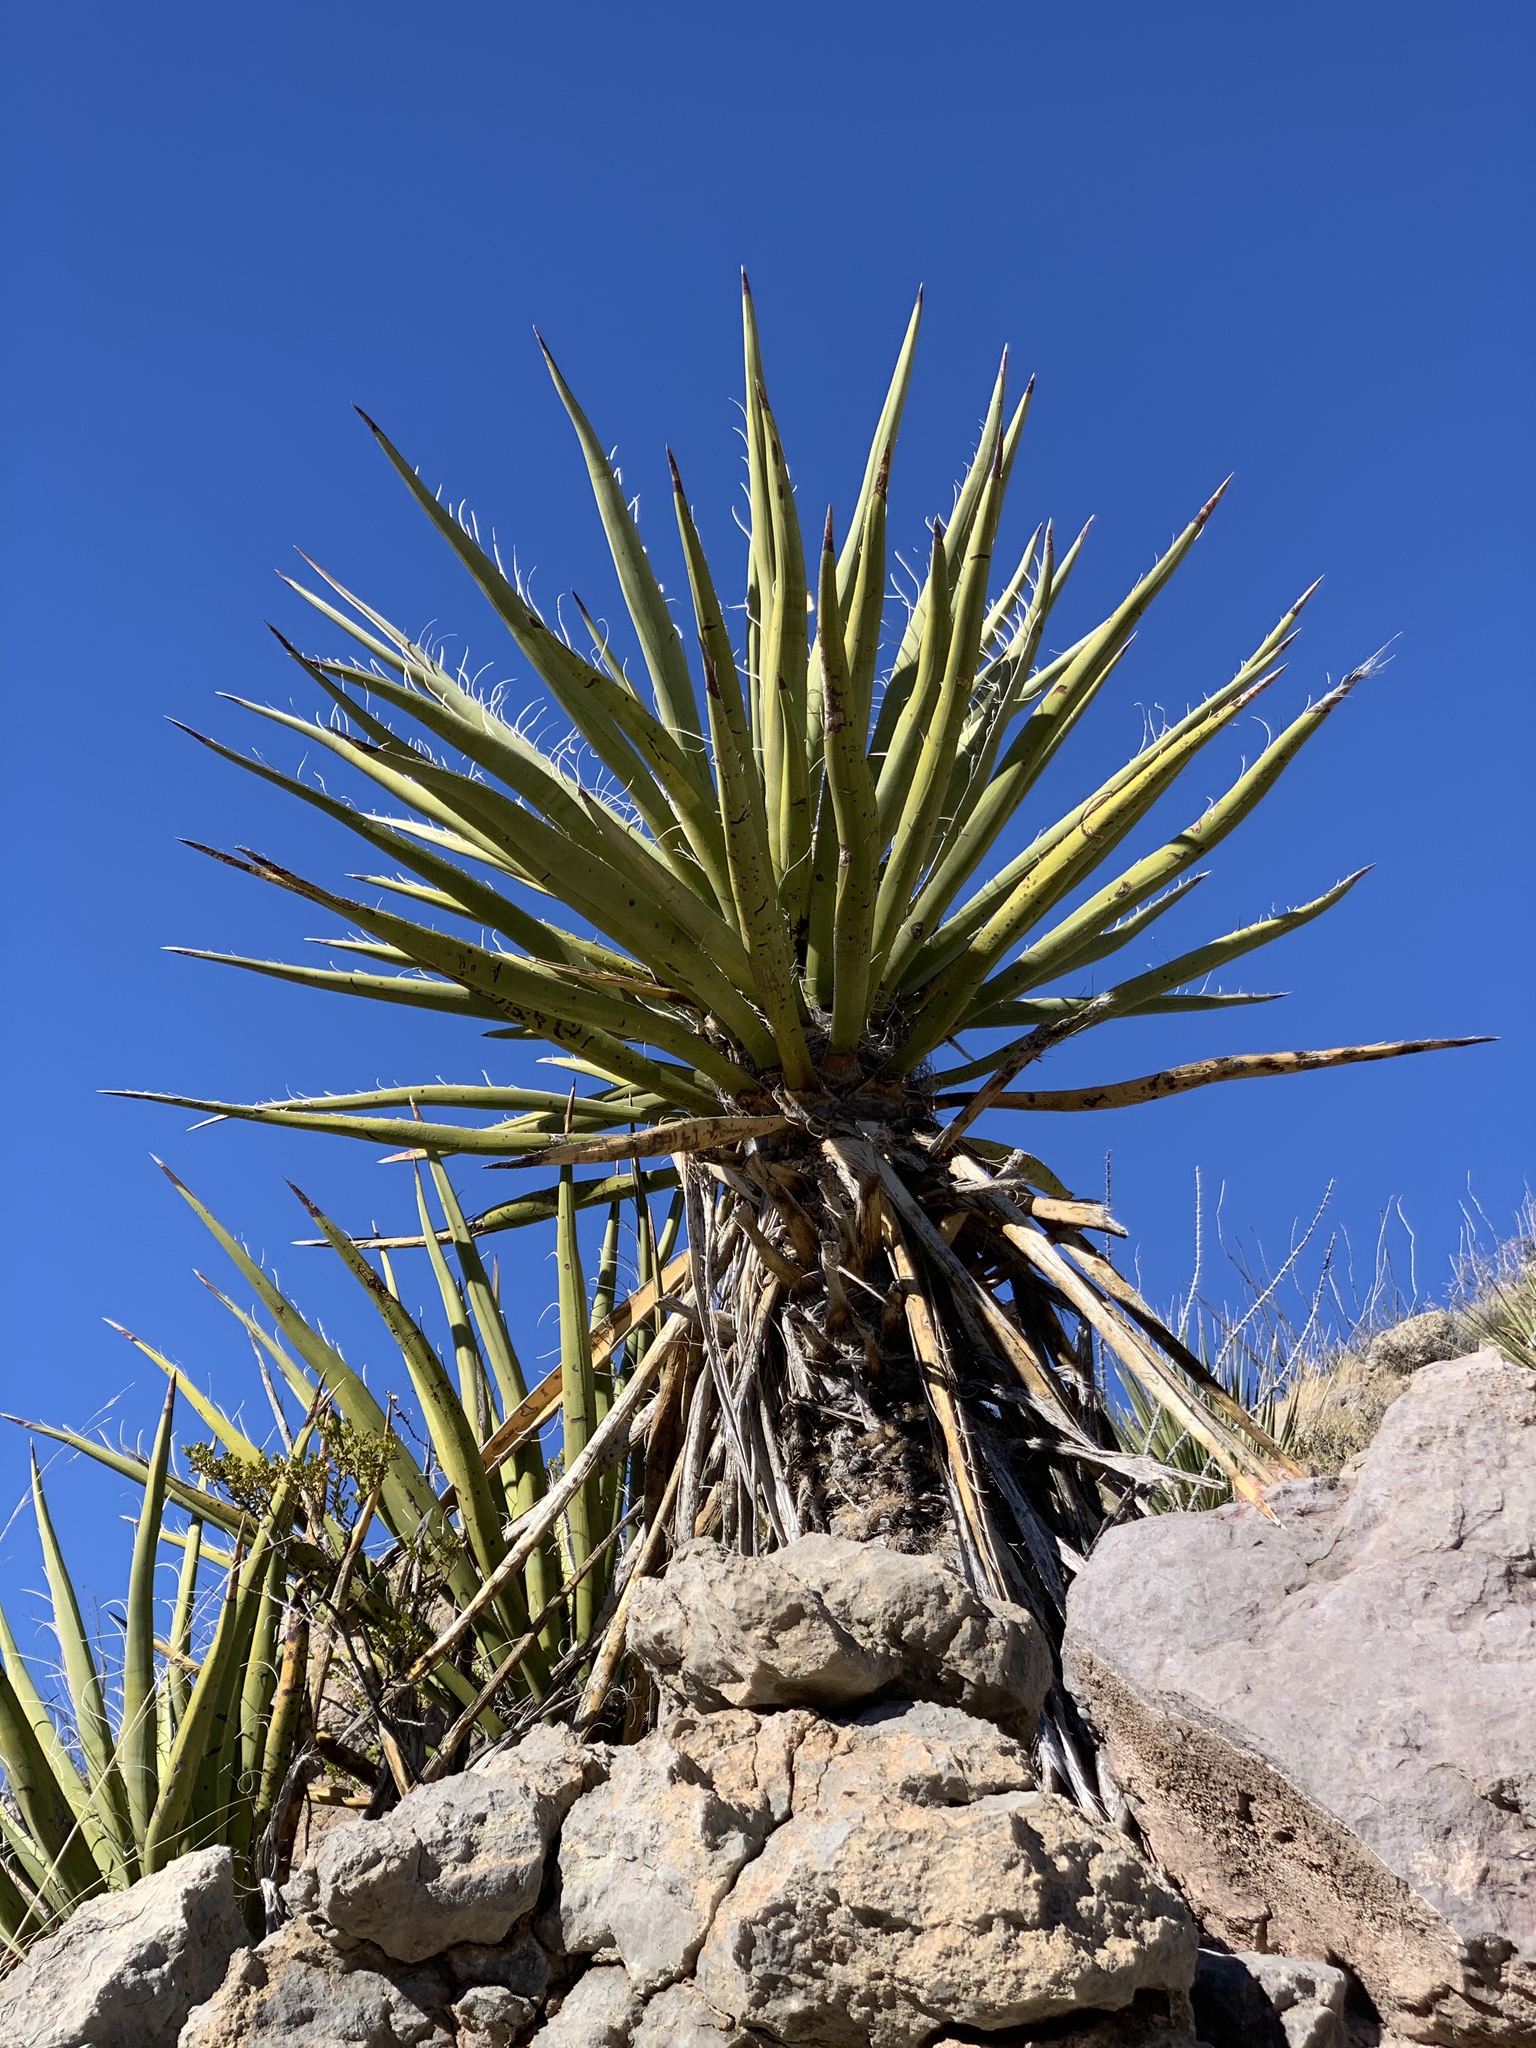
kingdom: Plantae
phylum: Tracheophyta
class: Liliopsida
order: Asparagales
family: Asparagaceae
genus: Yucca
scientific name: Yucca treculiana
